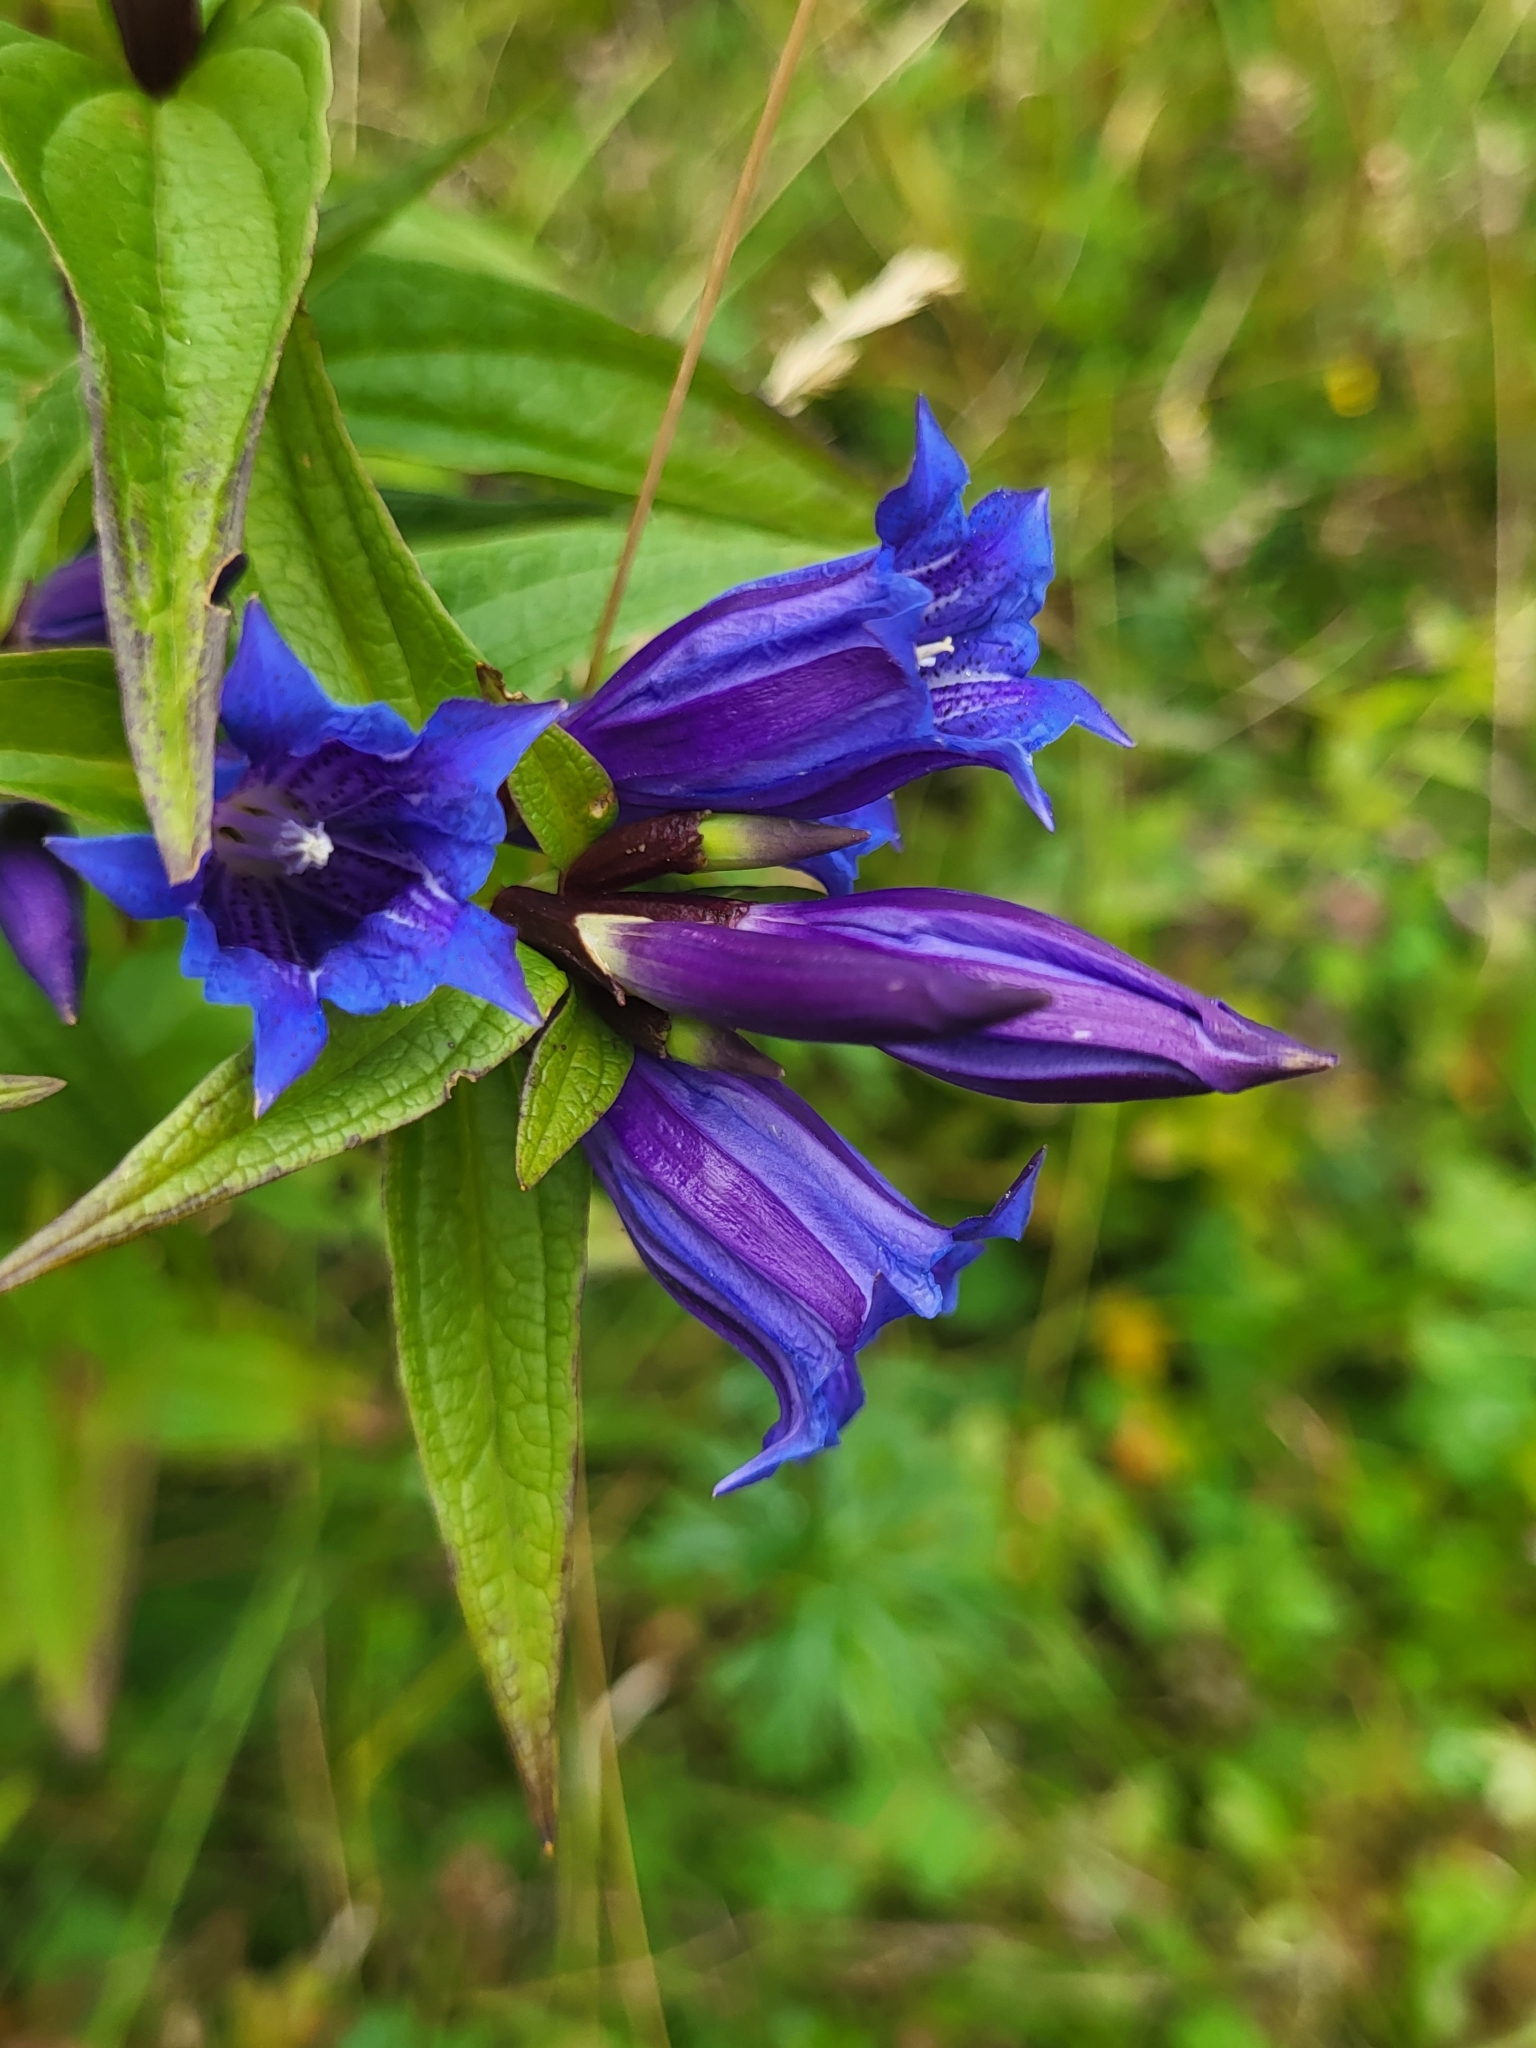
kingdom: Plantae
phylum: Tracheophyta
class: Magnoliopsida
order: Gentianales
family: Gentianaceae
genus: Gentiana
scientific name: Gentiana asclepiadea
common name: Willow gentian
